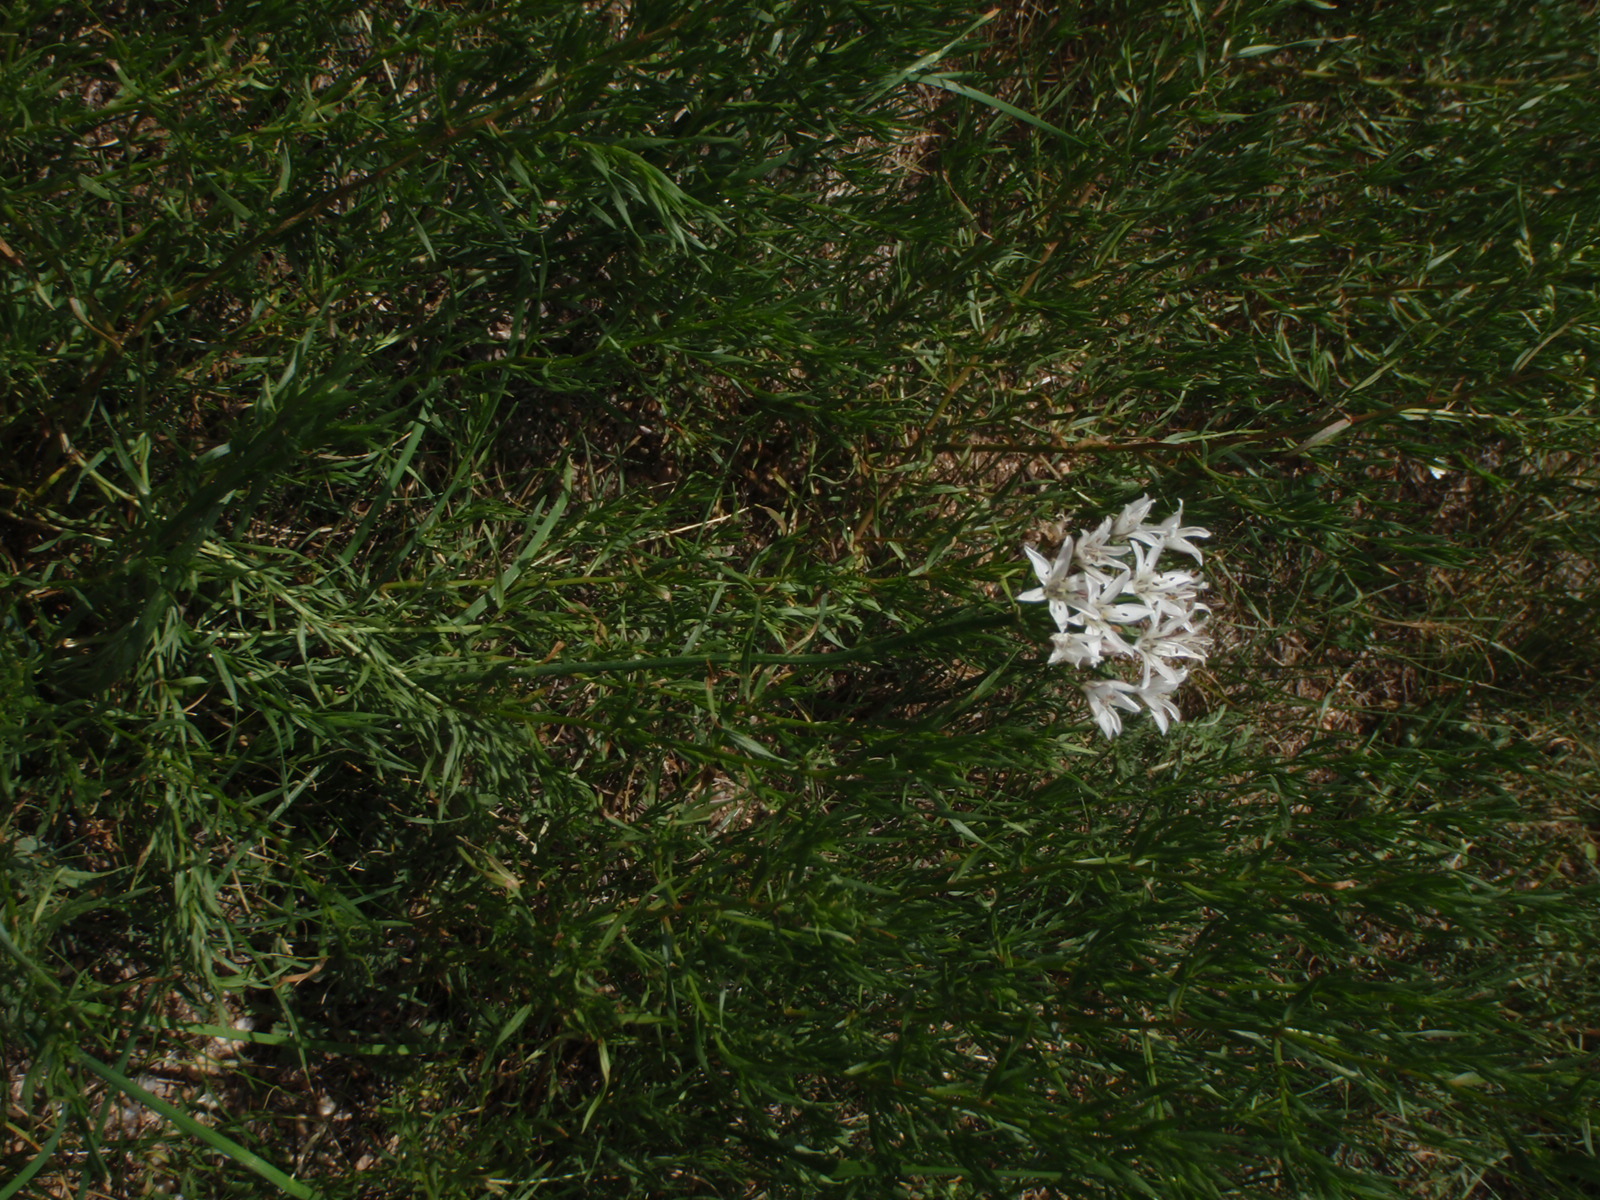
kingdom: Plantae
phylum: Tracheophyta
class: Liliopsida
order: Asparagales
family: Amaryllidaceae
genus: Allium
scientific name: Allium ramosum
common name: Fragrant garlic
